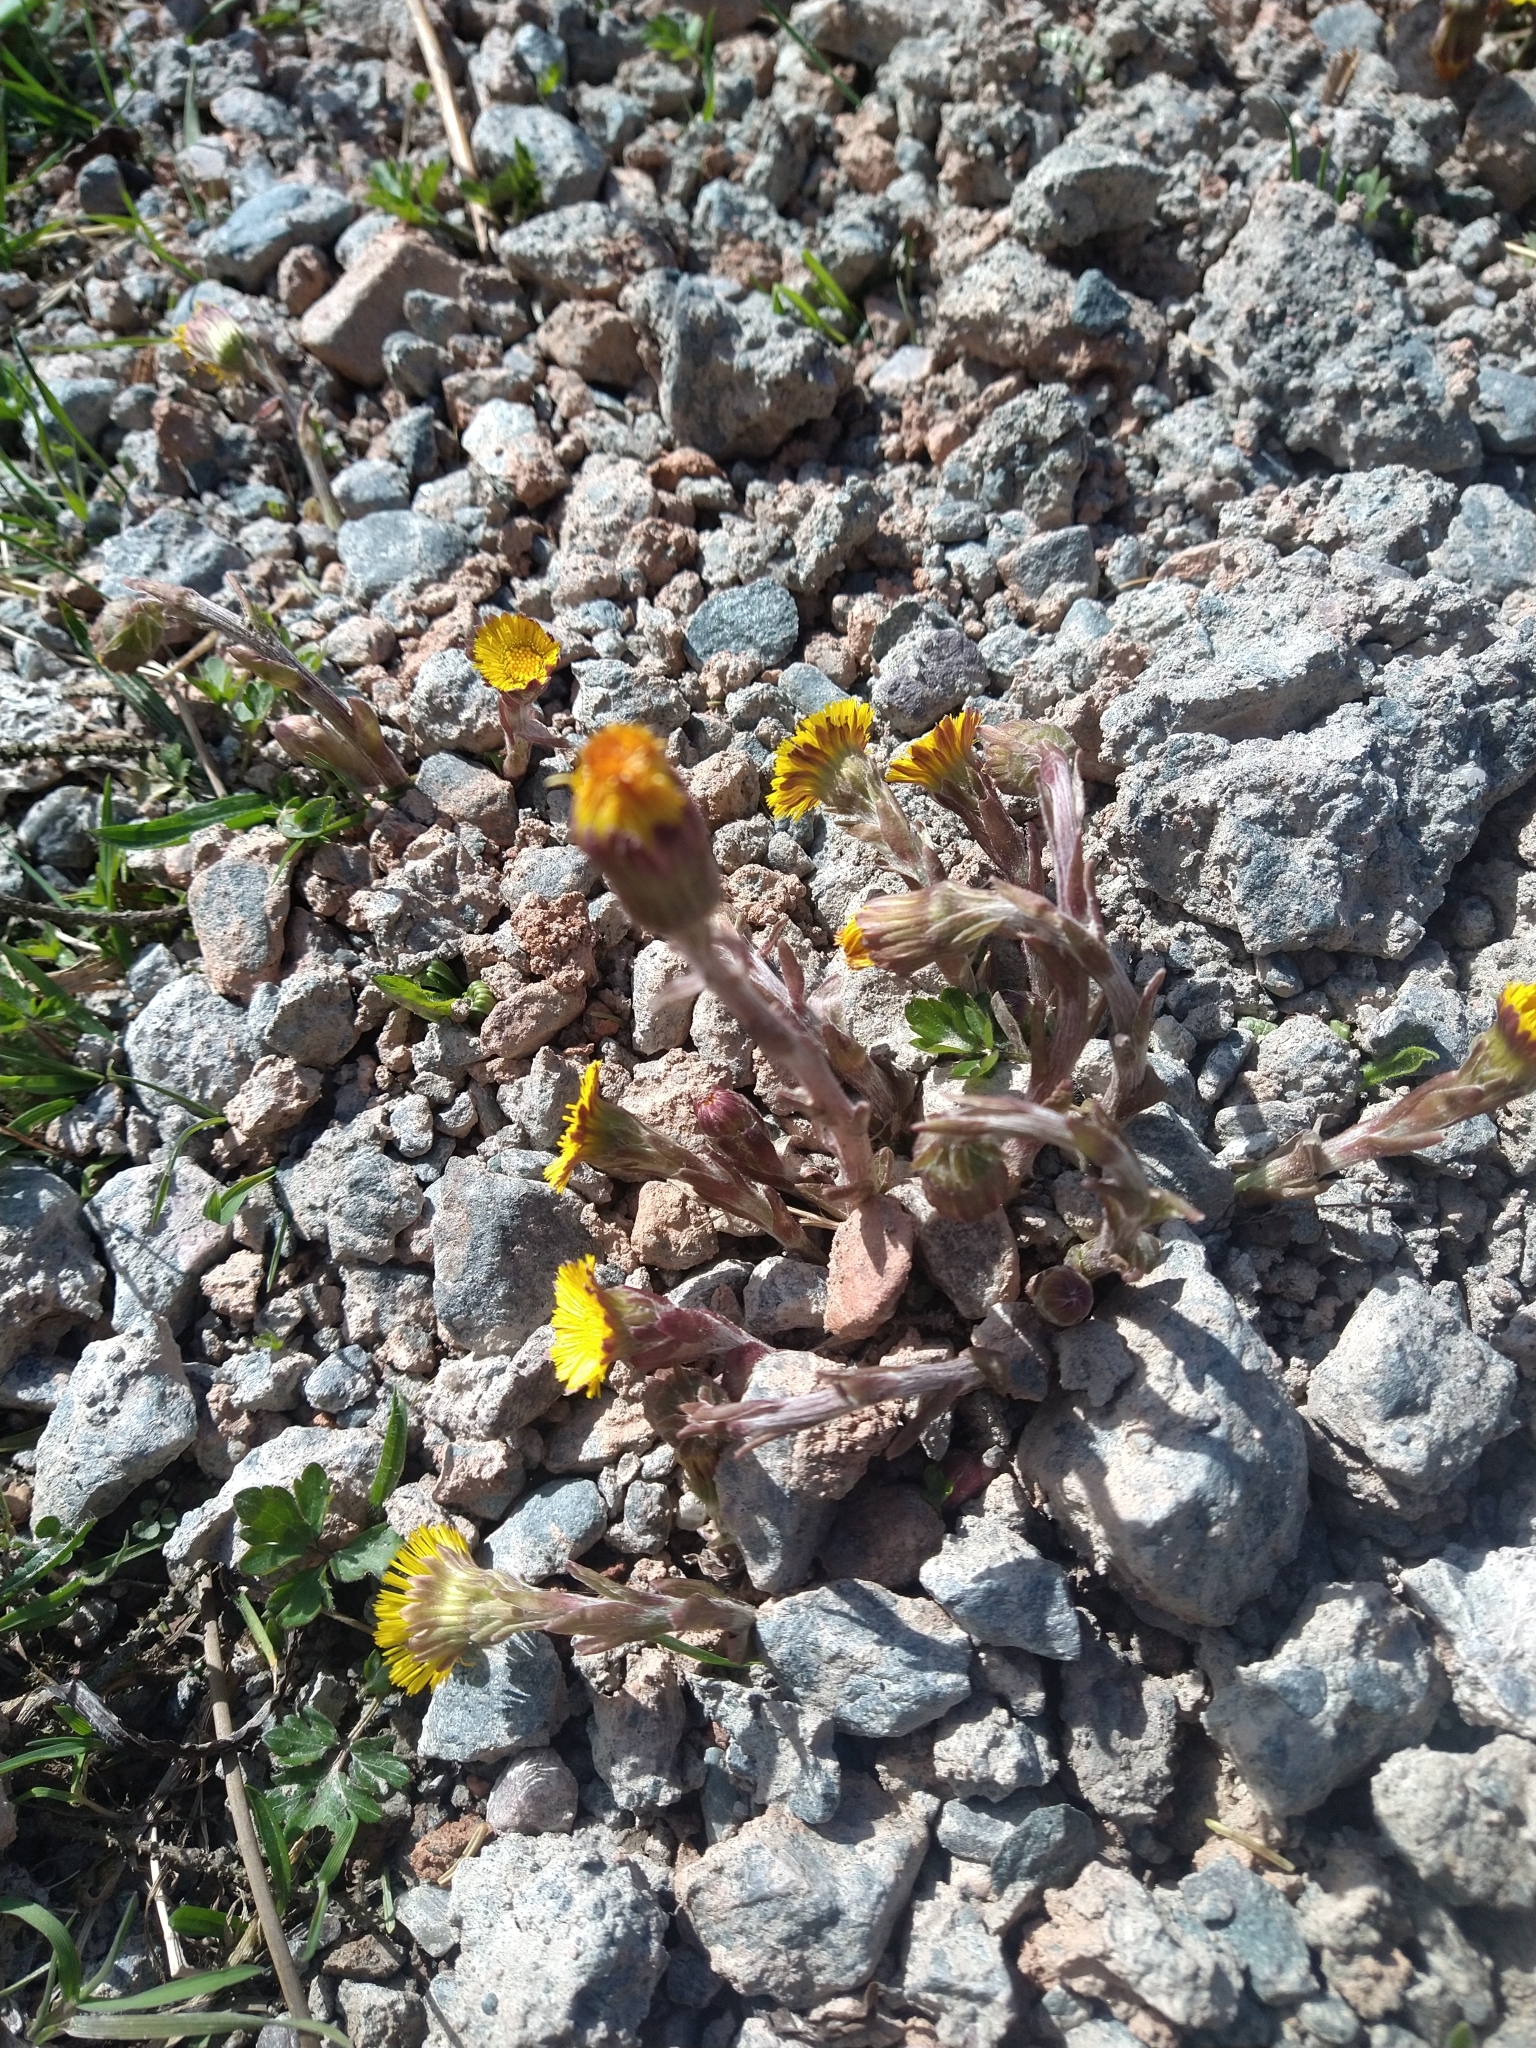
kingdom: Plantae
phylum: Tracheophyta
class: Magnoliopsida
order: Asterales
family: Asteraceae
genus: Tussilago
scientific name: Tussilago farfara
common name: Coltsfoot
